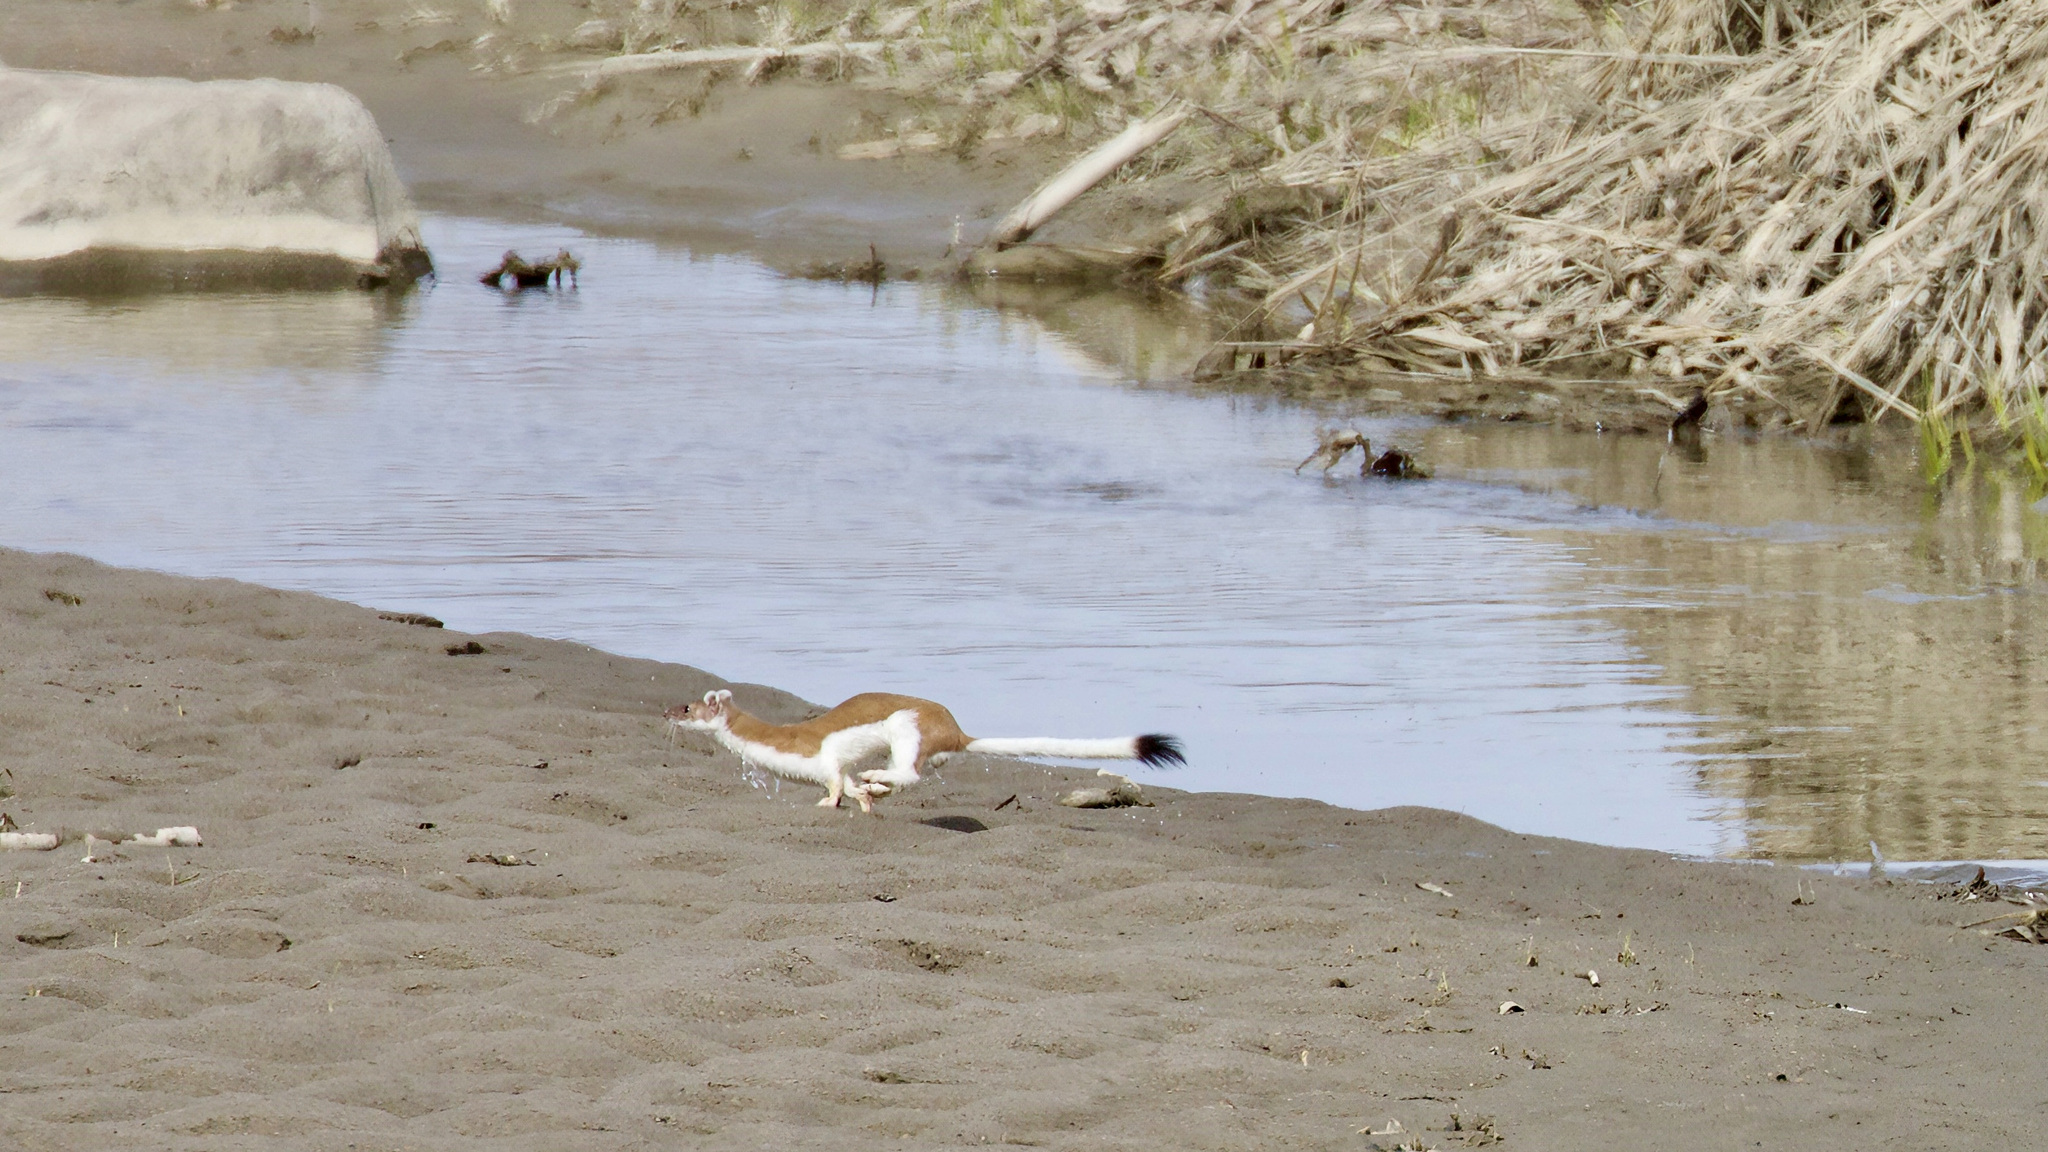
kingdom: Animalia
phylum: Chordata
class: Mammalia
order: Carnivora
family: Mustelidae
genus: Mustela
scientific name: Mustela
